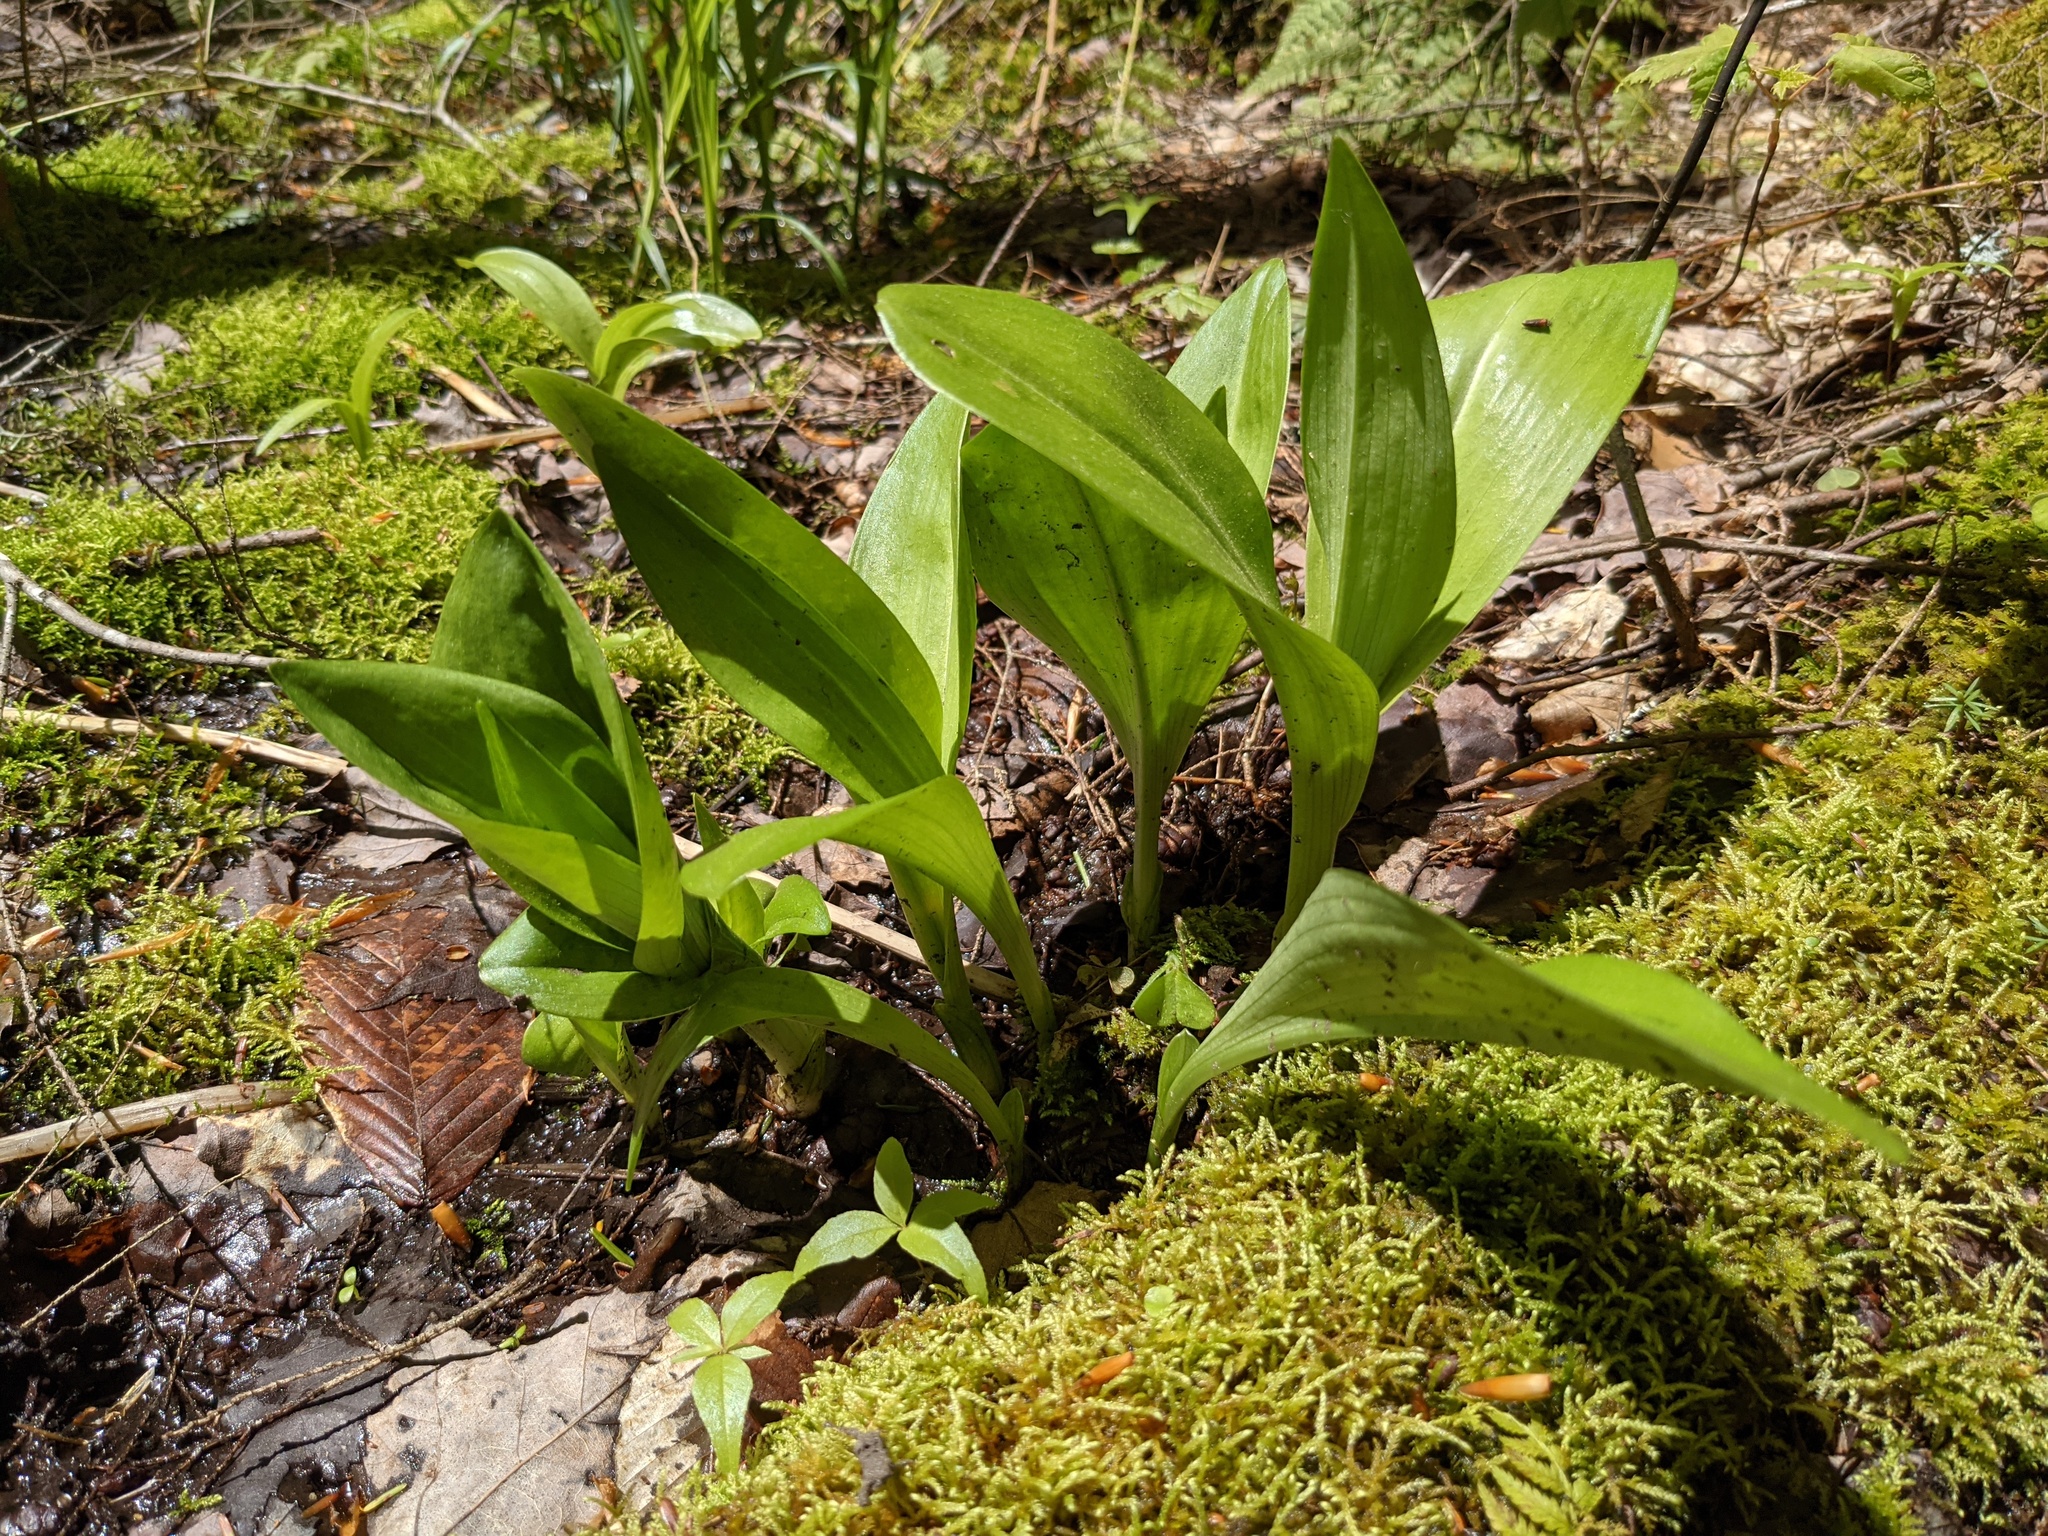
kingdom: Plantae
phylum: Tracheophyta
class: Liliopsida
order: Asparagales
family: Orchidaceae
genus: Platanthera
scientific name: Platanthera grandiflora
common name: Greater purple fringed orchid
